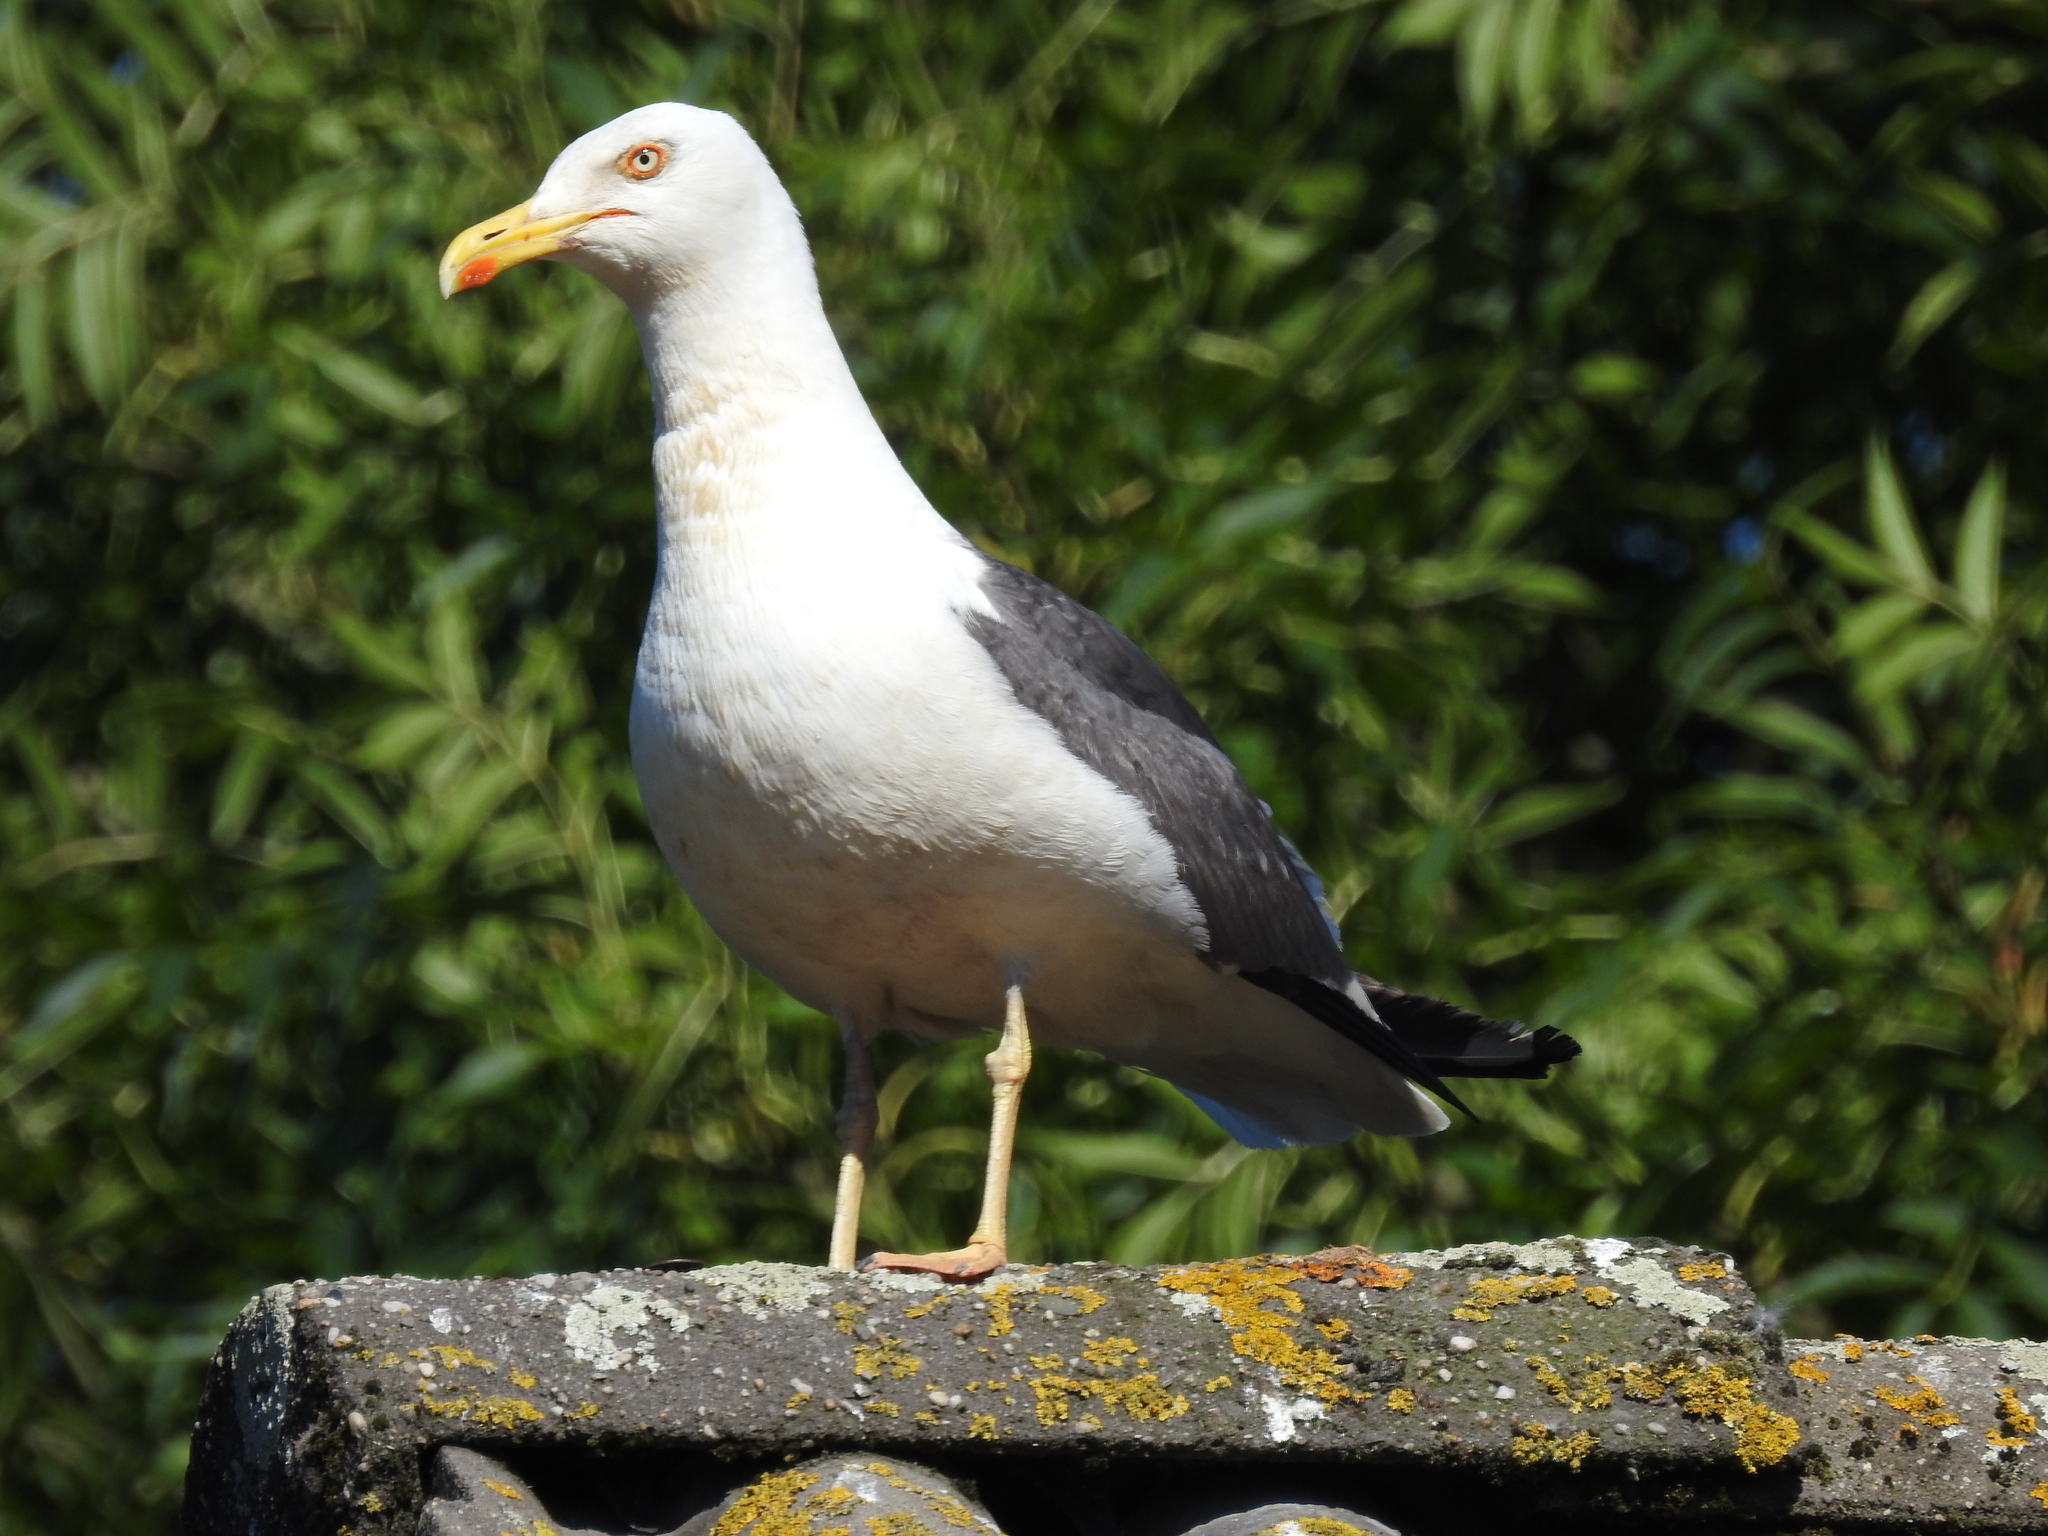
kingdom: Animalia
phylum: Chordata
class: Aves
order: Charadriiformes
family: Laridae
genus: Larus
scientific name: Larus fuscus
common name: Lesser black-backed gull
